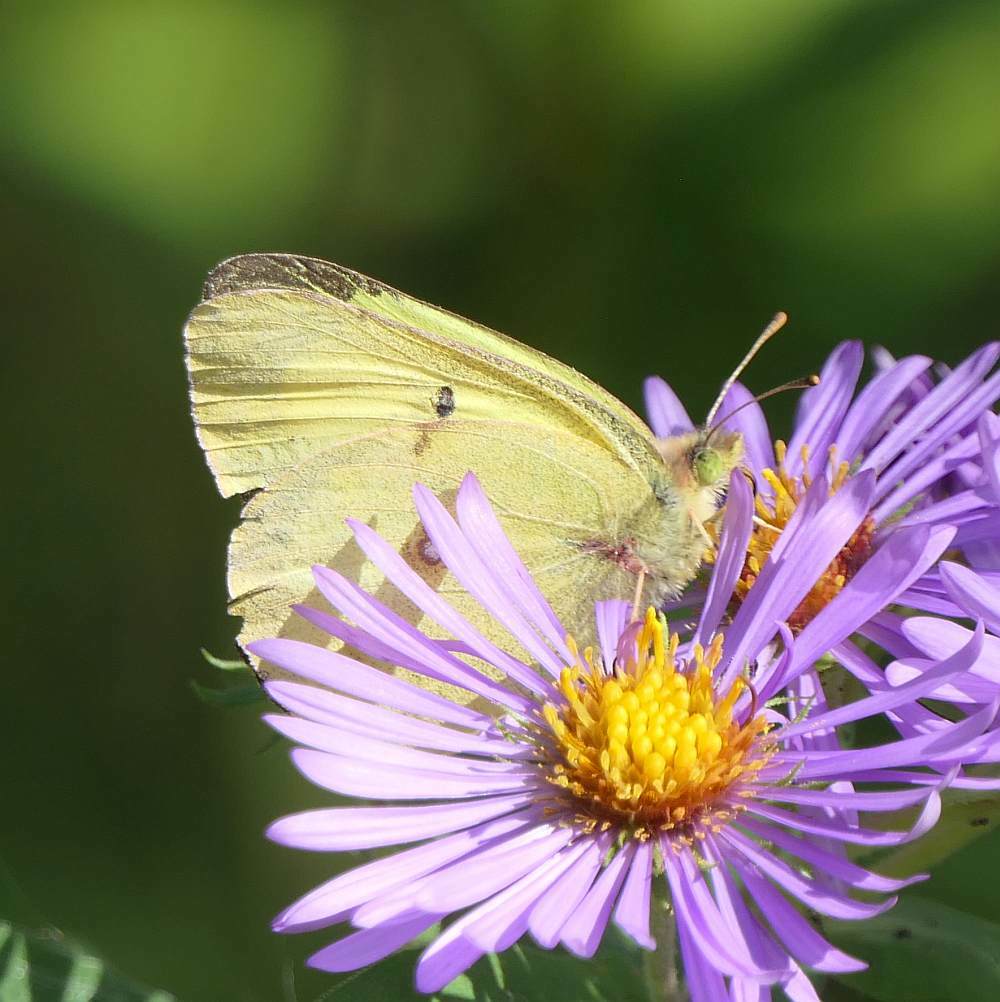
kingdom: Animalia
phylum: Arthropoda
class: Insecta
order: Lepidoptera
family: Pieridae
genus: Colias
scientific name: Colias philodice
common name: Clouded sulphur
